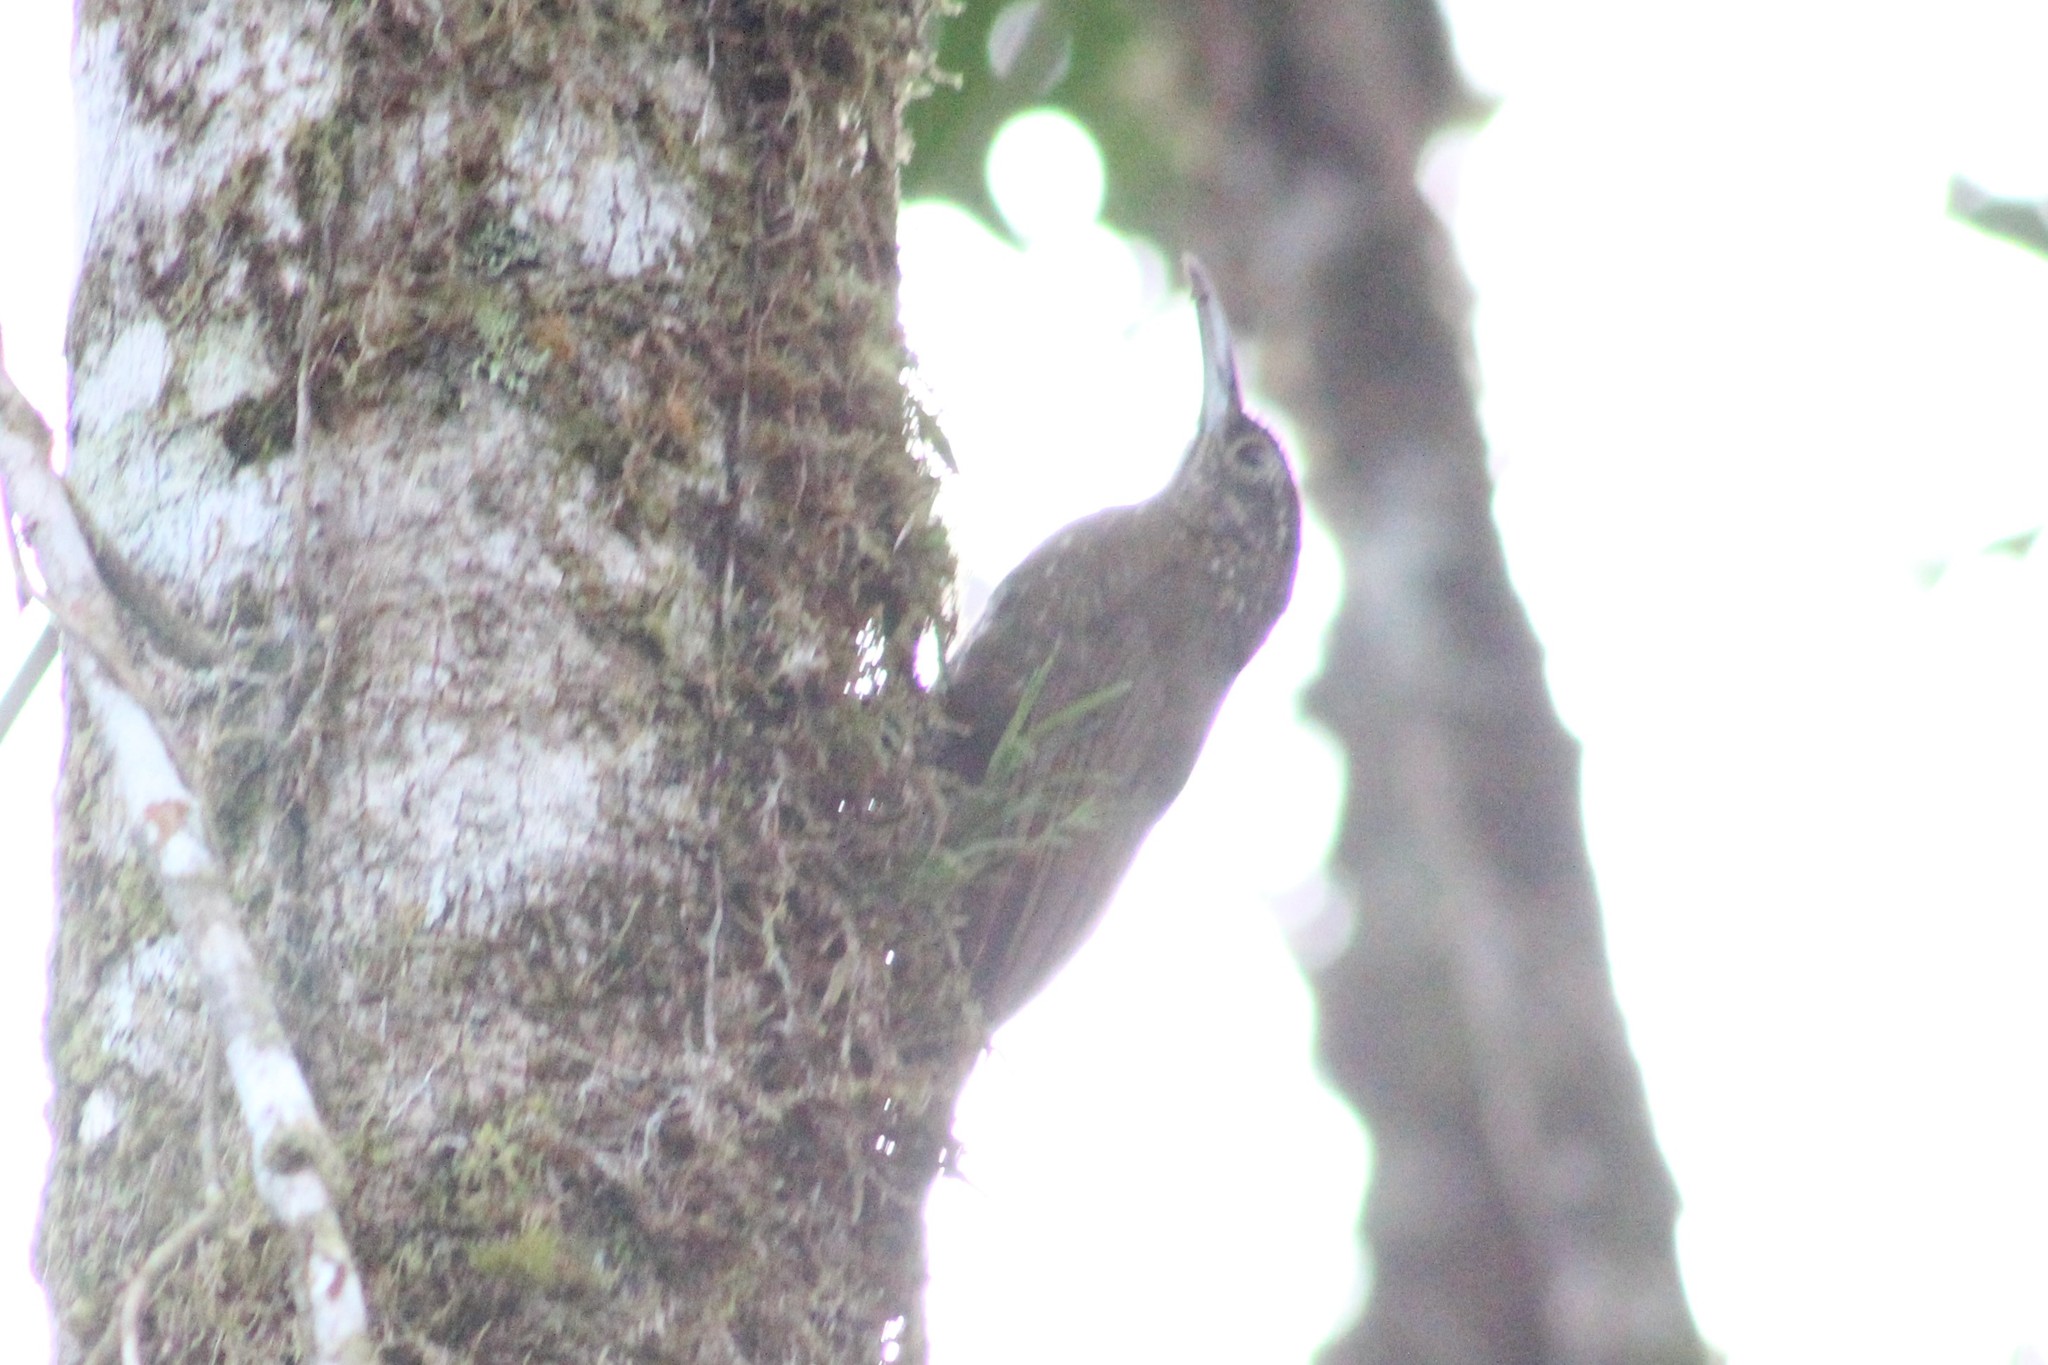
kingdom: Animalia
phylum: Chordata
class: Aves
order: Passeriformes
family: Furnariidae
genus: Lepidocolaptes
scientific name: Lepidocolaptes lacrymiger
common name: Montane woodcreeper
